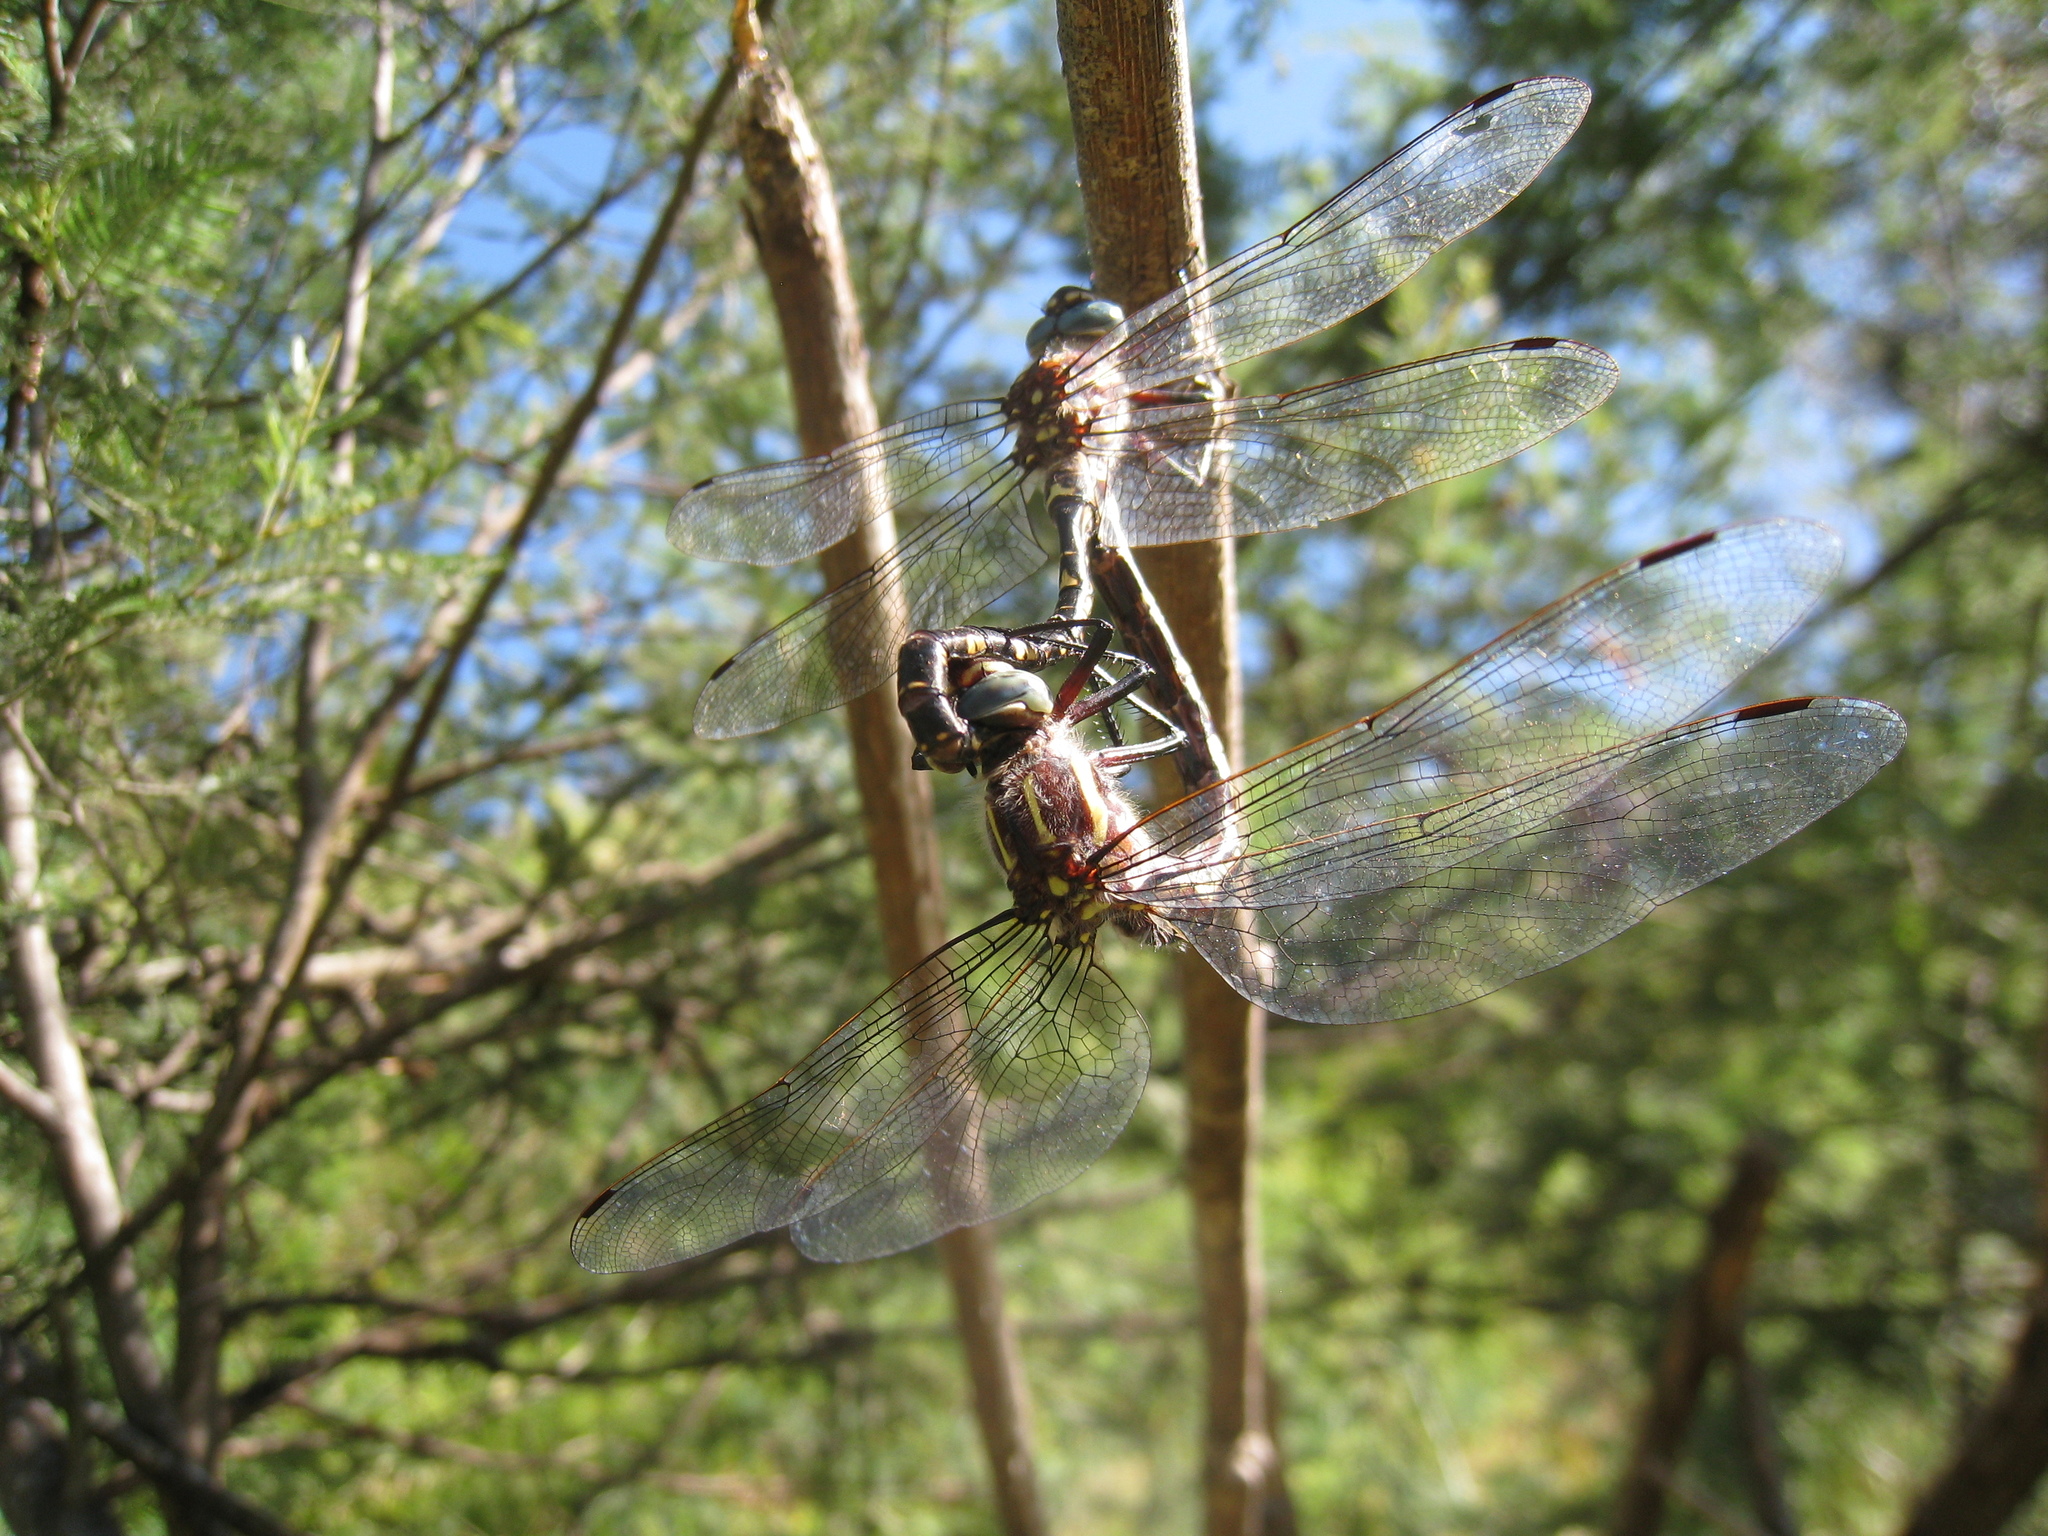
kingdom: Animalia
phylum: Arthropoda
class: Insecta
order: Odonata
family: Aeshnidae
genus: Notoaeschna
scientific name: Notoaeschna sagittata
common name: Southern riffle darner
